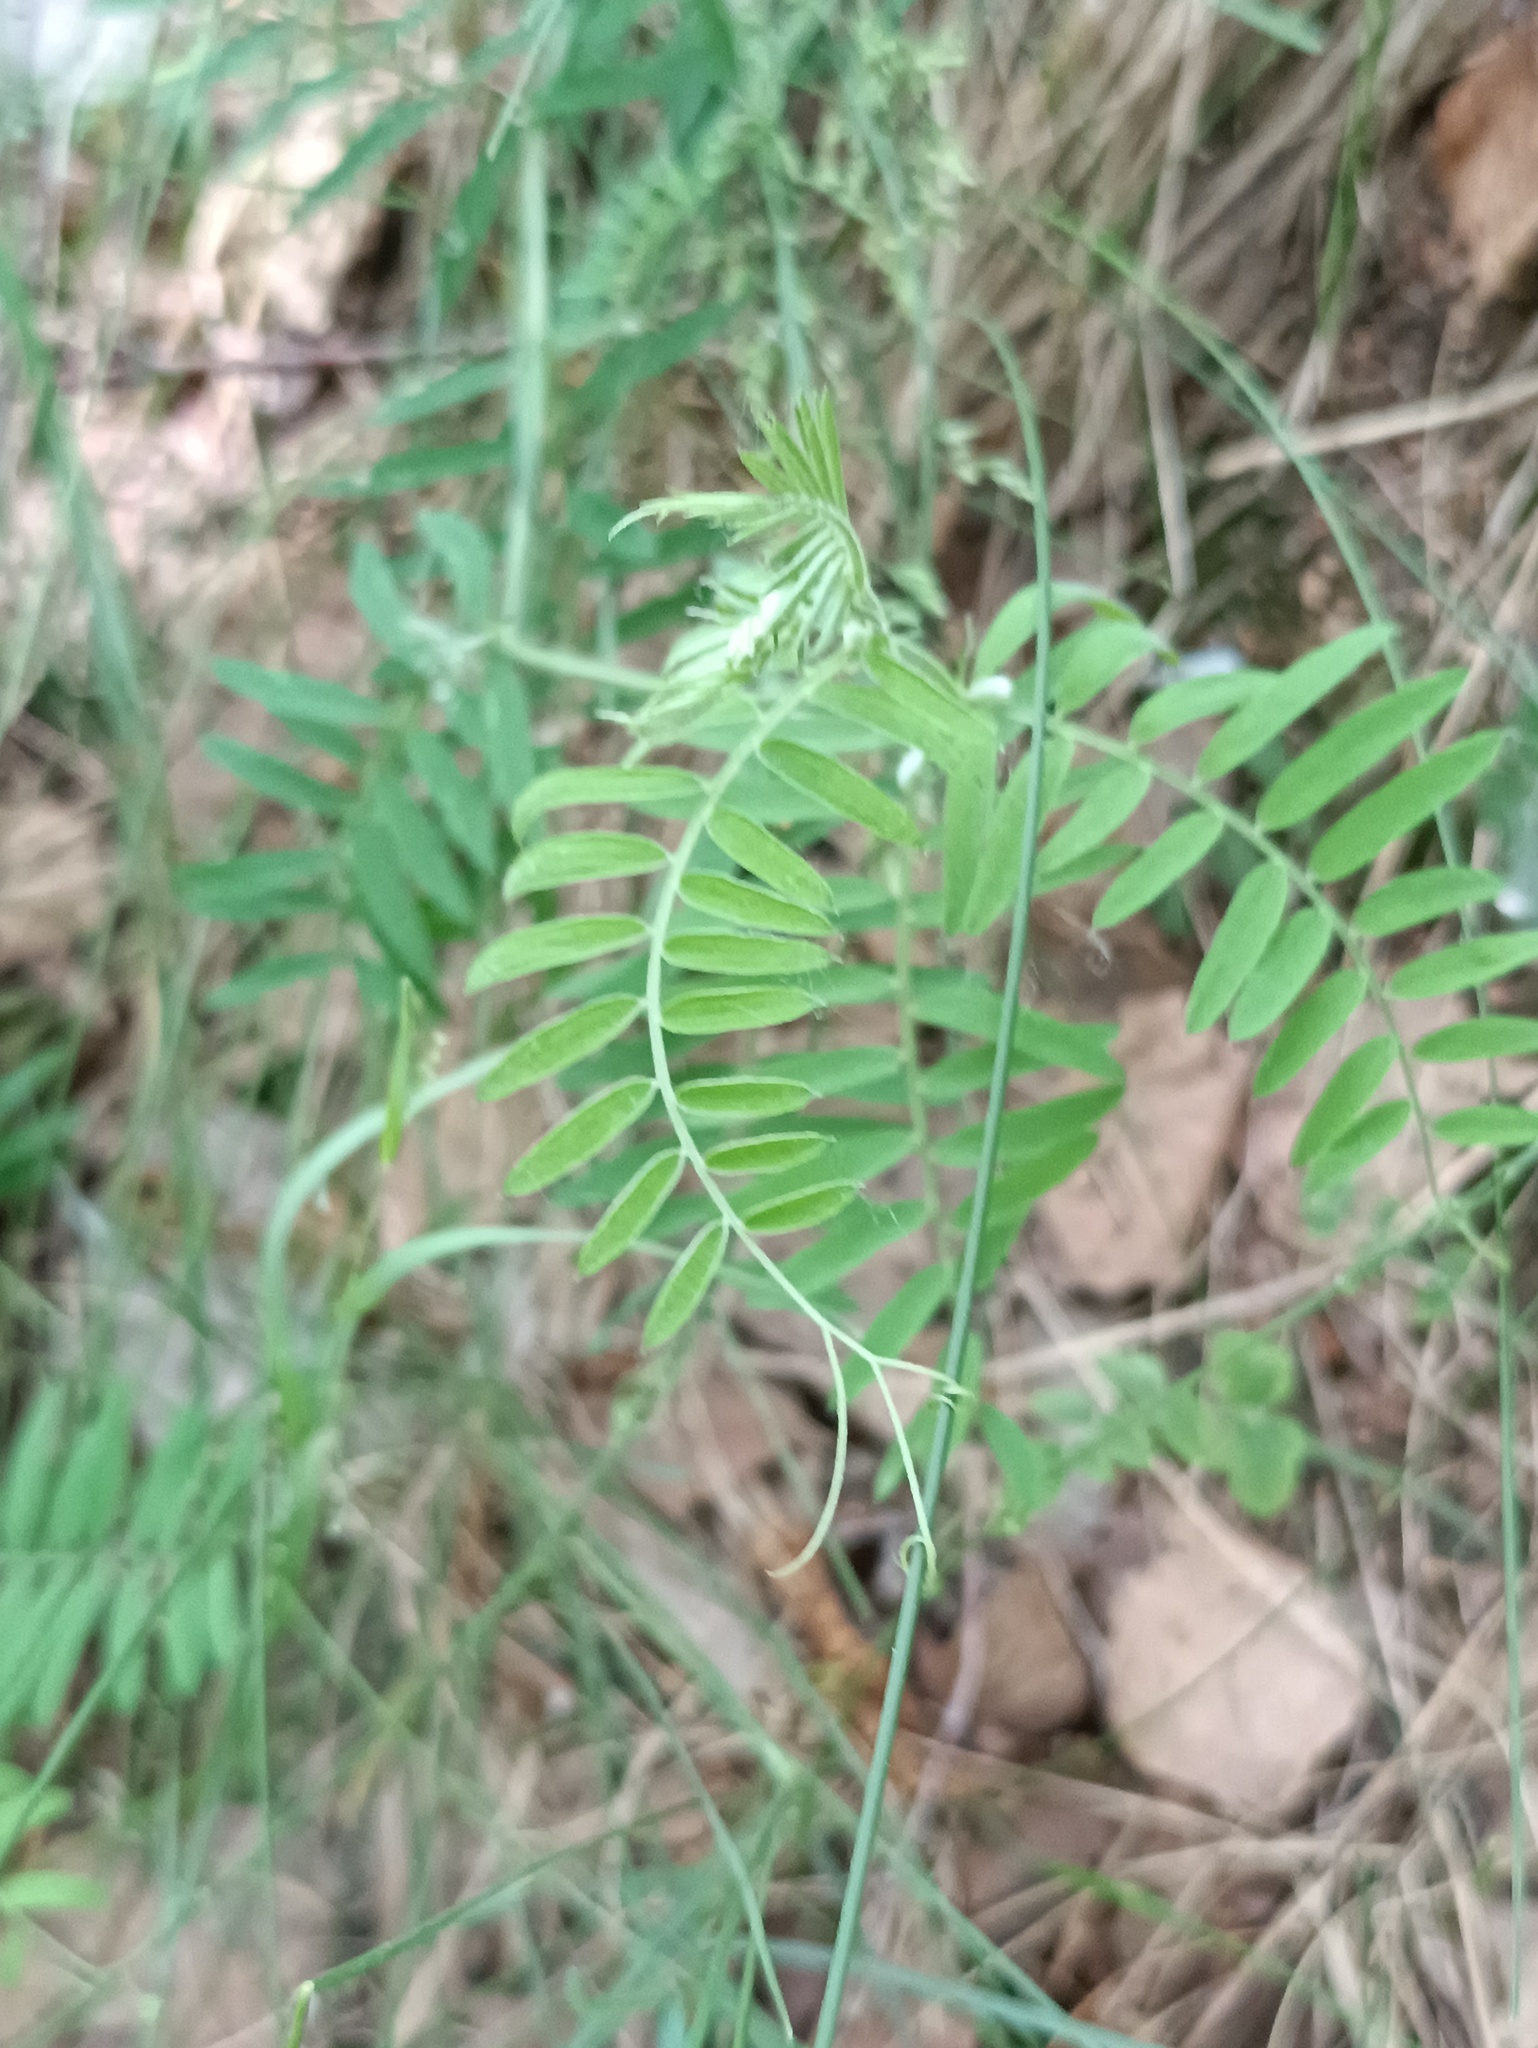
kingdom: Plantae
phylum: Tracheophyta
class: Magnoliopsida
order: Fabales
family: Fabaceae
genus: Vicia
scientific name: Vicia cracca
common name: Bird vetch
